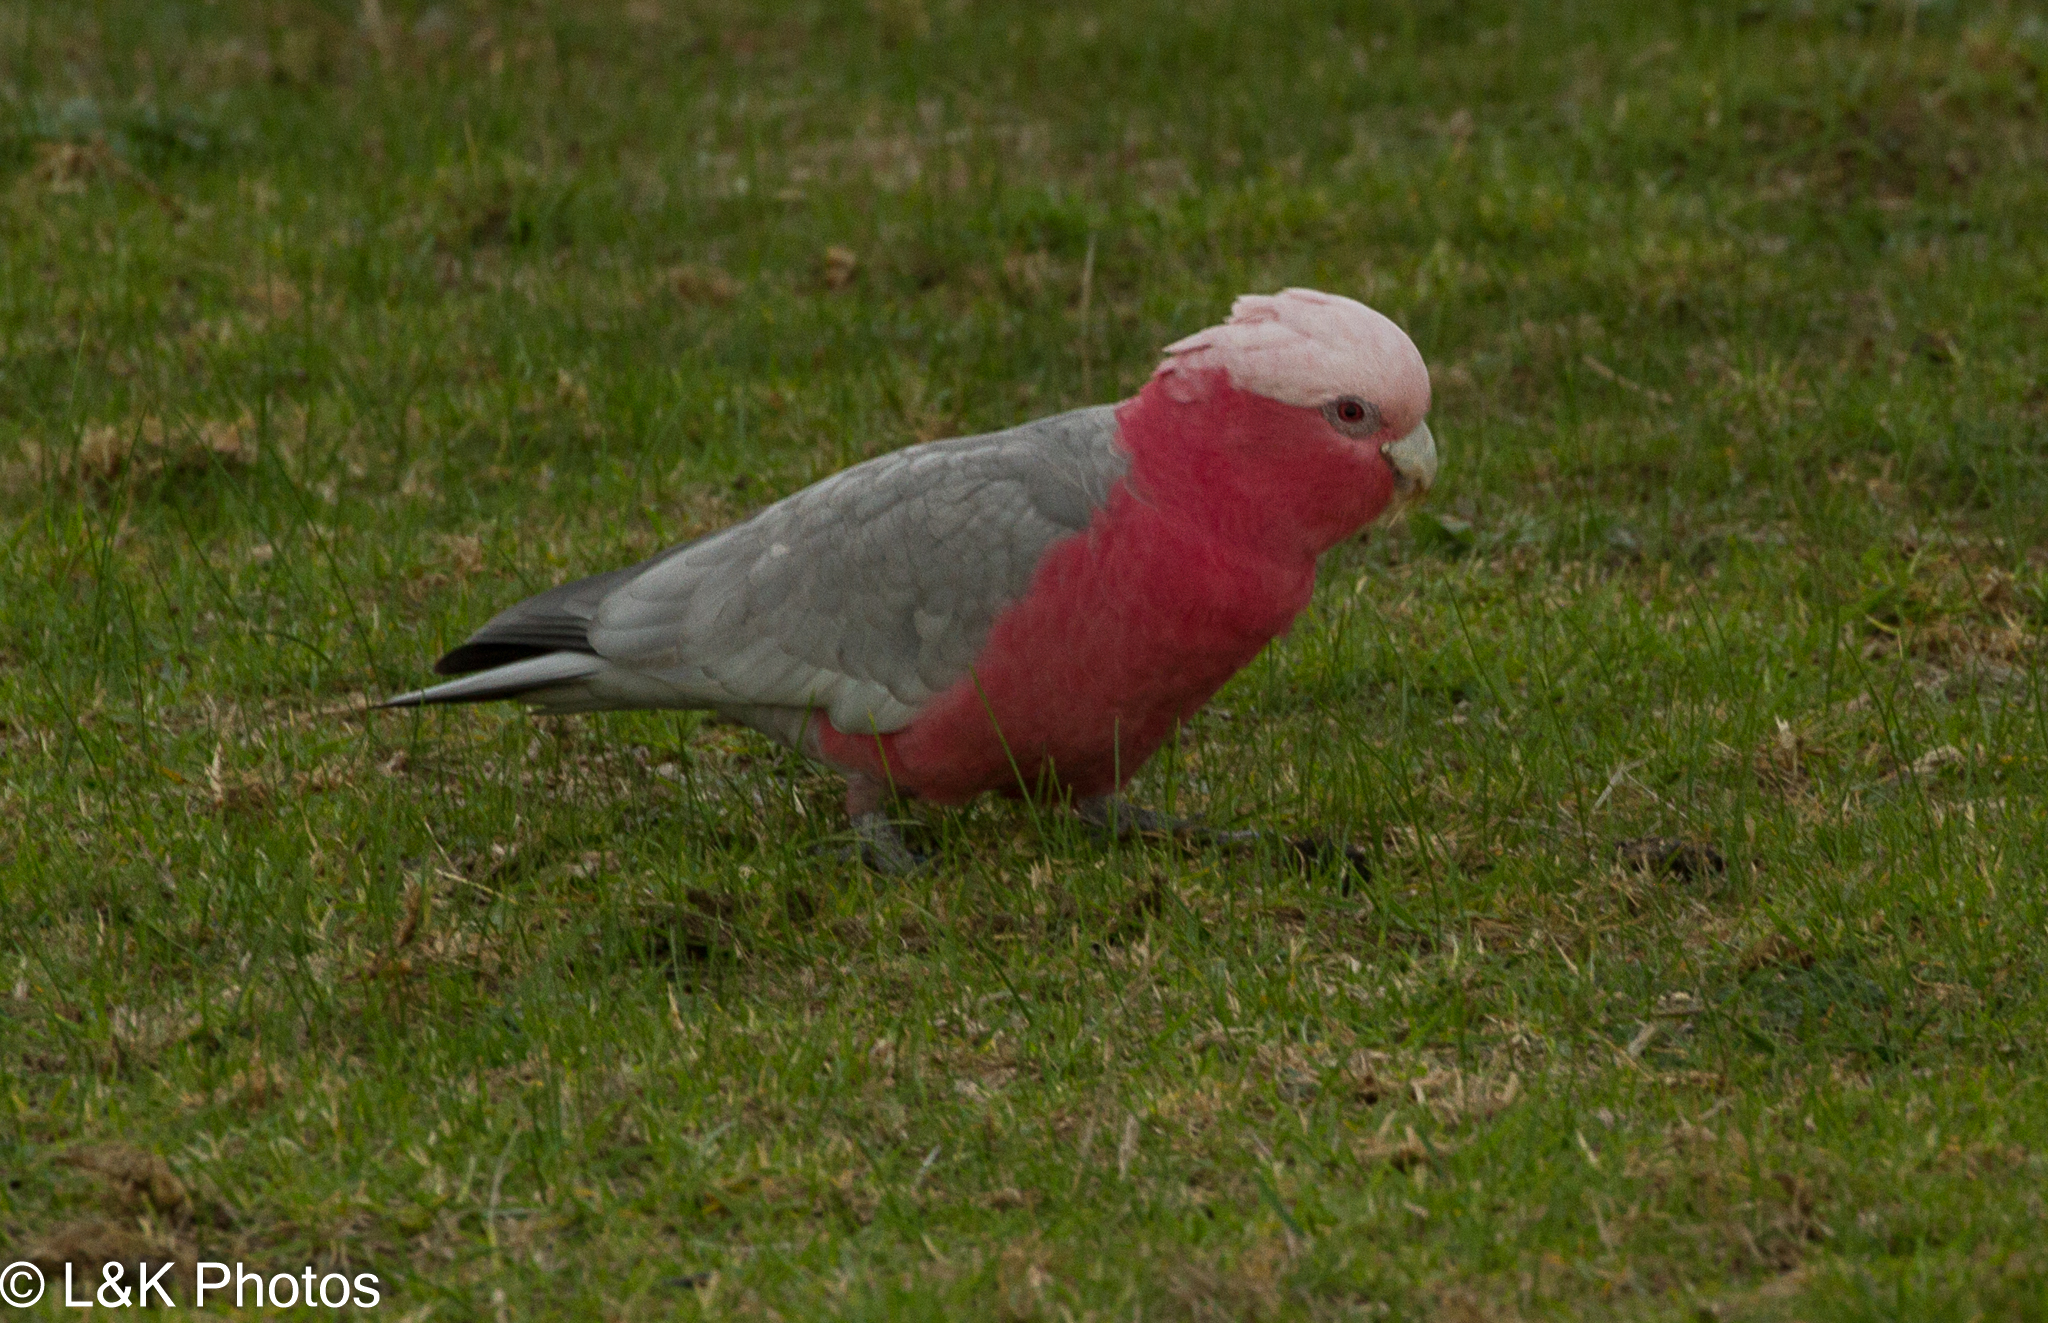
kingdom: Animalia
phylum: Chordata
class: Aves
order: Psittaciformes
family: Psittacidae
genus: Eolophus
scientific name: Eolophus roseicapilla
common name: Galah
